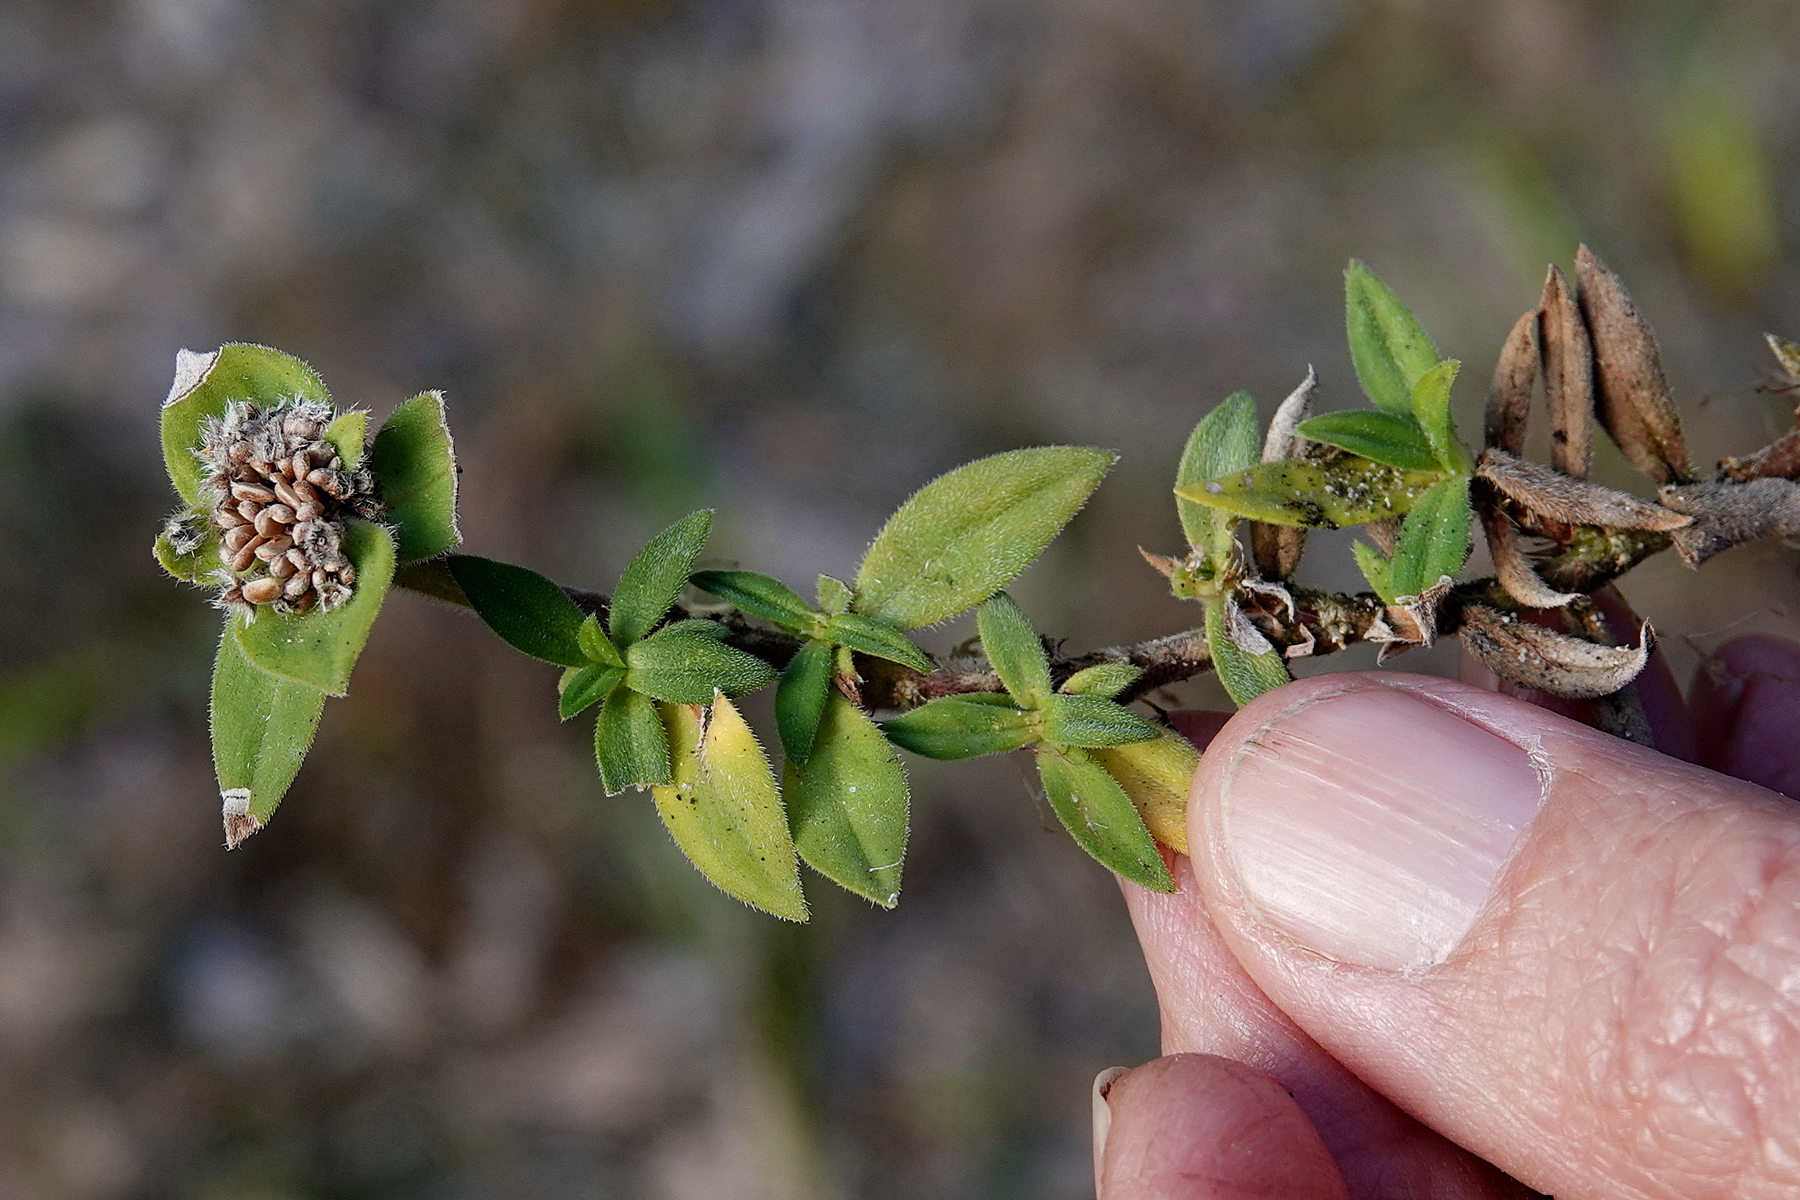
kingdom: Plantae
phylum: Tracheophyta
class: Magnoliopsida
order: Gentianales
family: Rubiaceae
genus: Richardia
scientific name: Richardia humistrata
